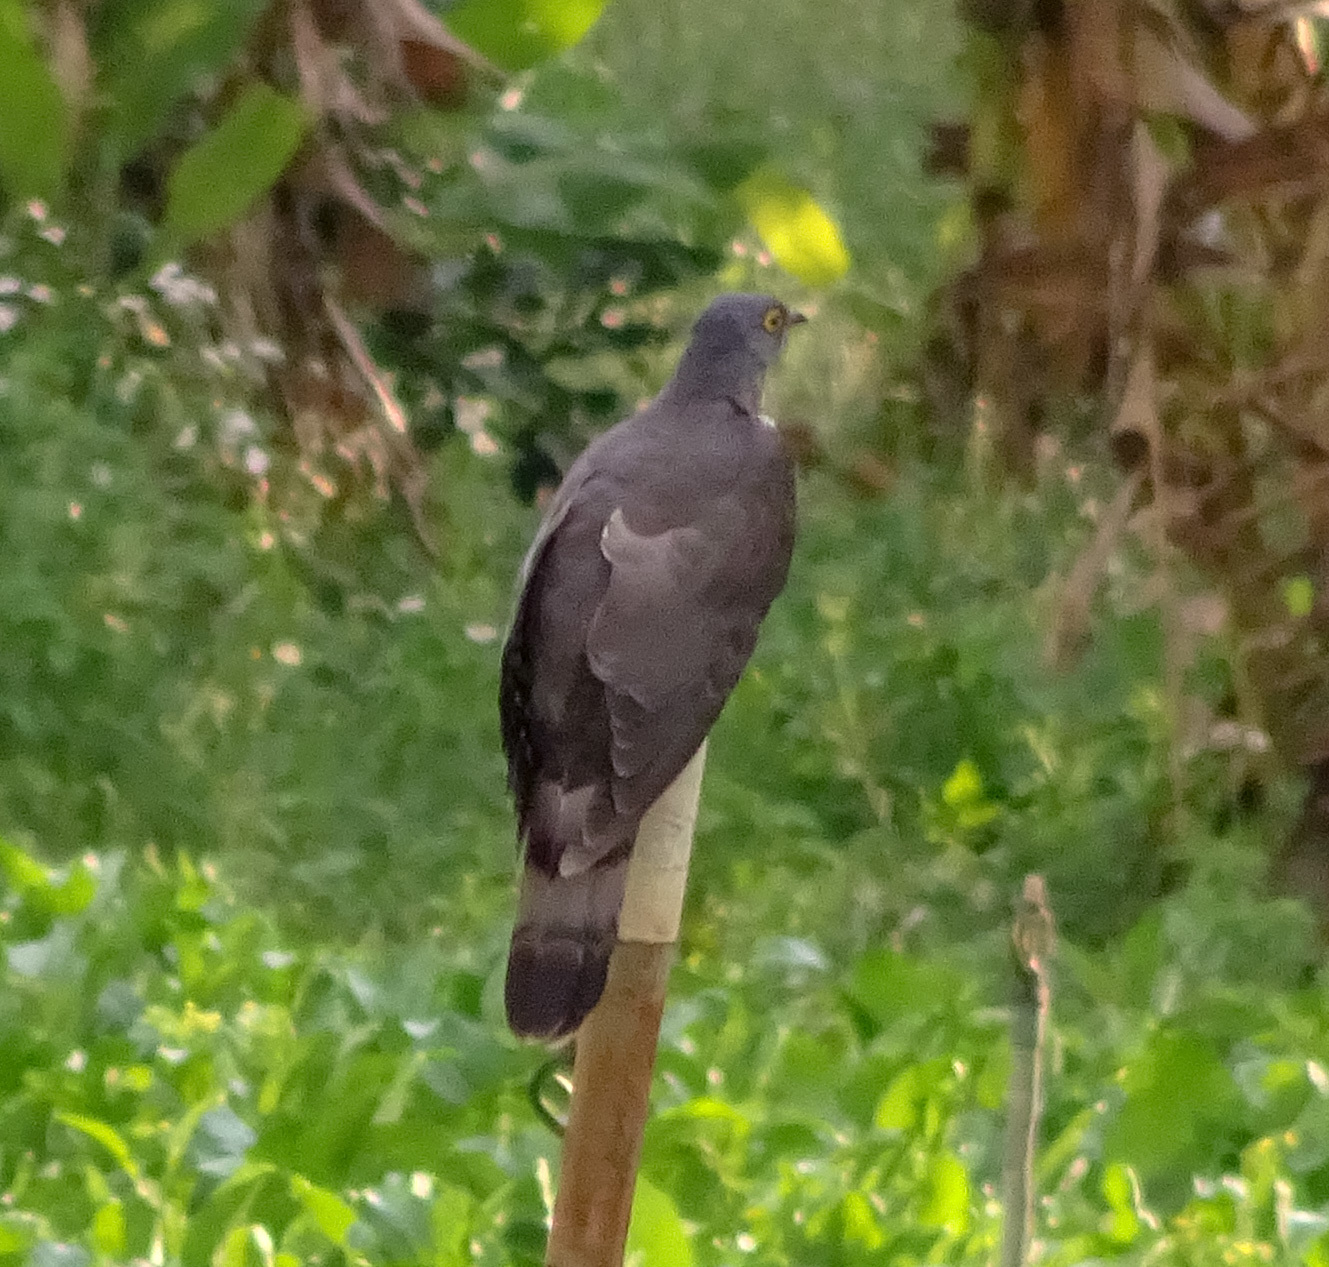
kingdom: Animalia
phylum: Chordata
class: Aves
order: Cuculiformes
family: Cuculidae
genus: Cuculus
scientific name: Cuculus sparverioides
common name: Large hawk cuckoo
